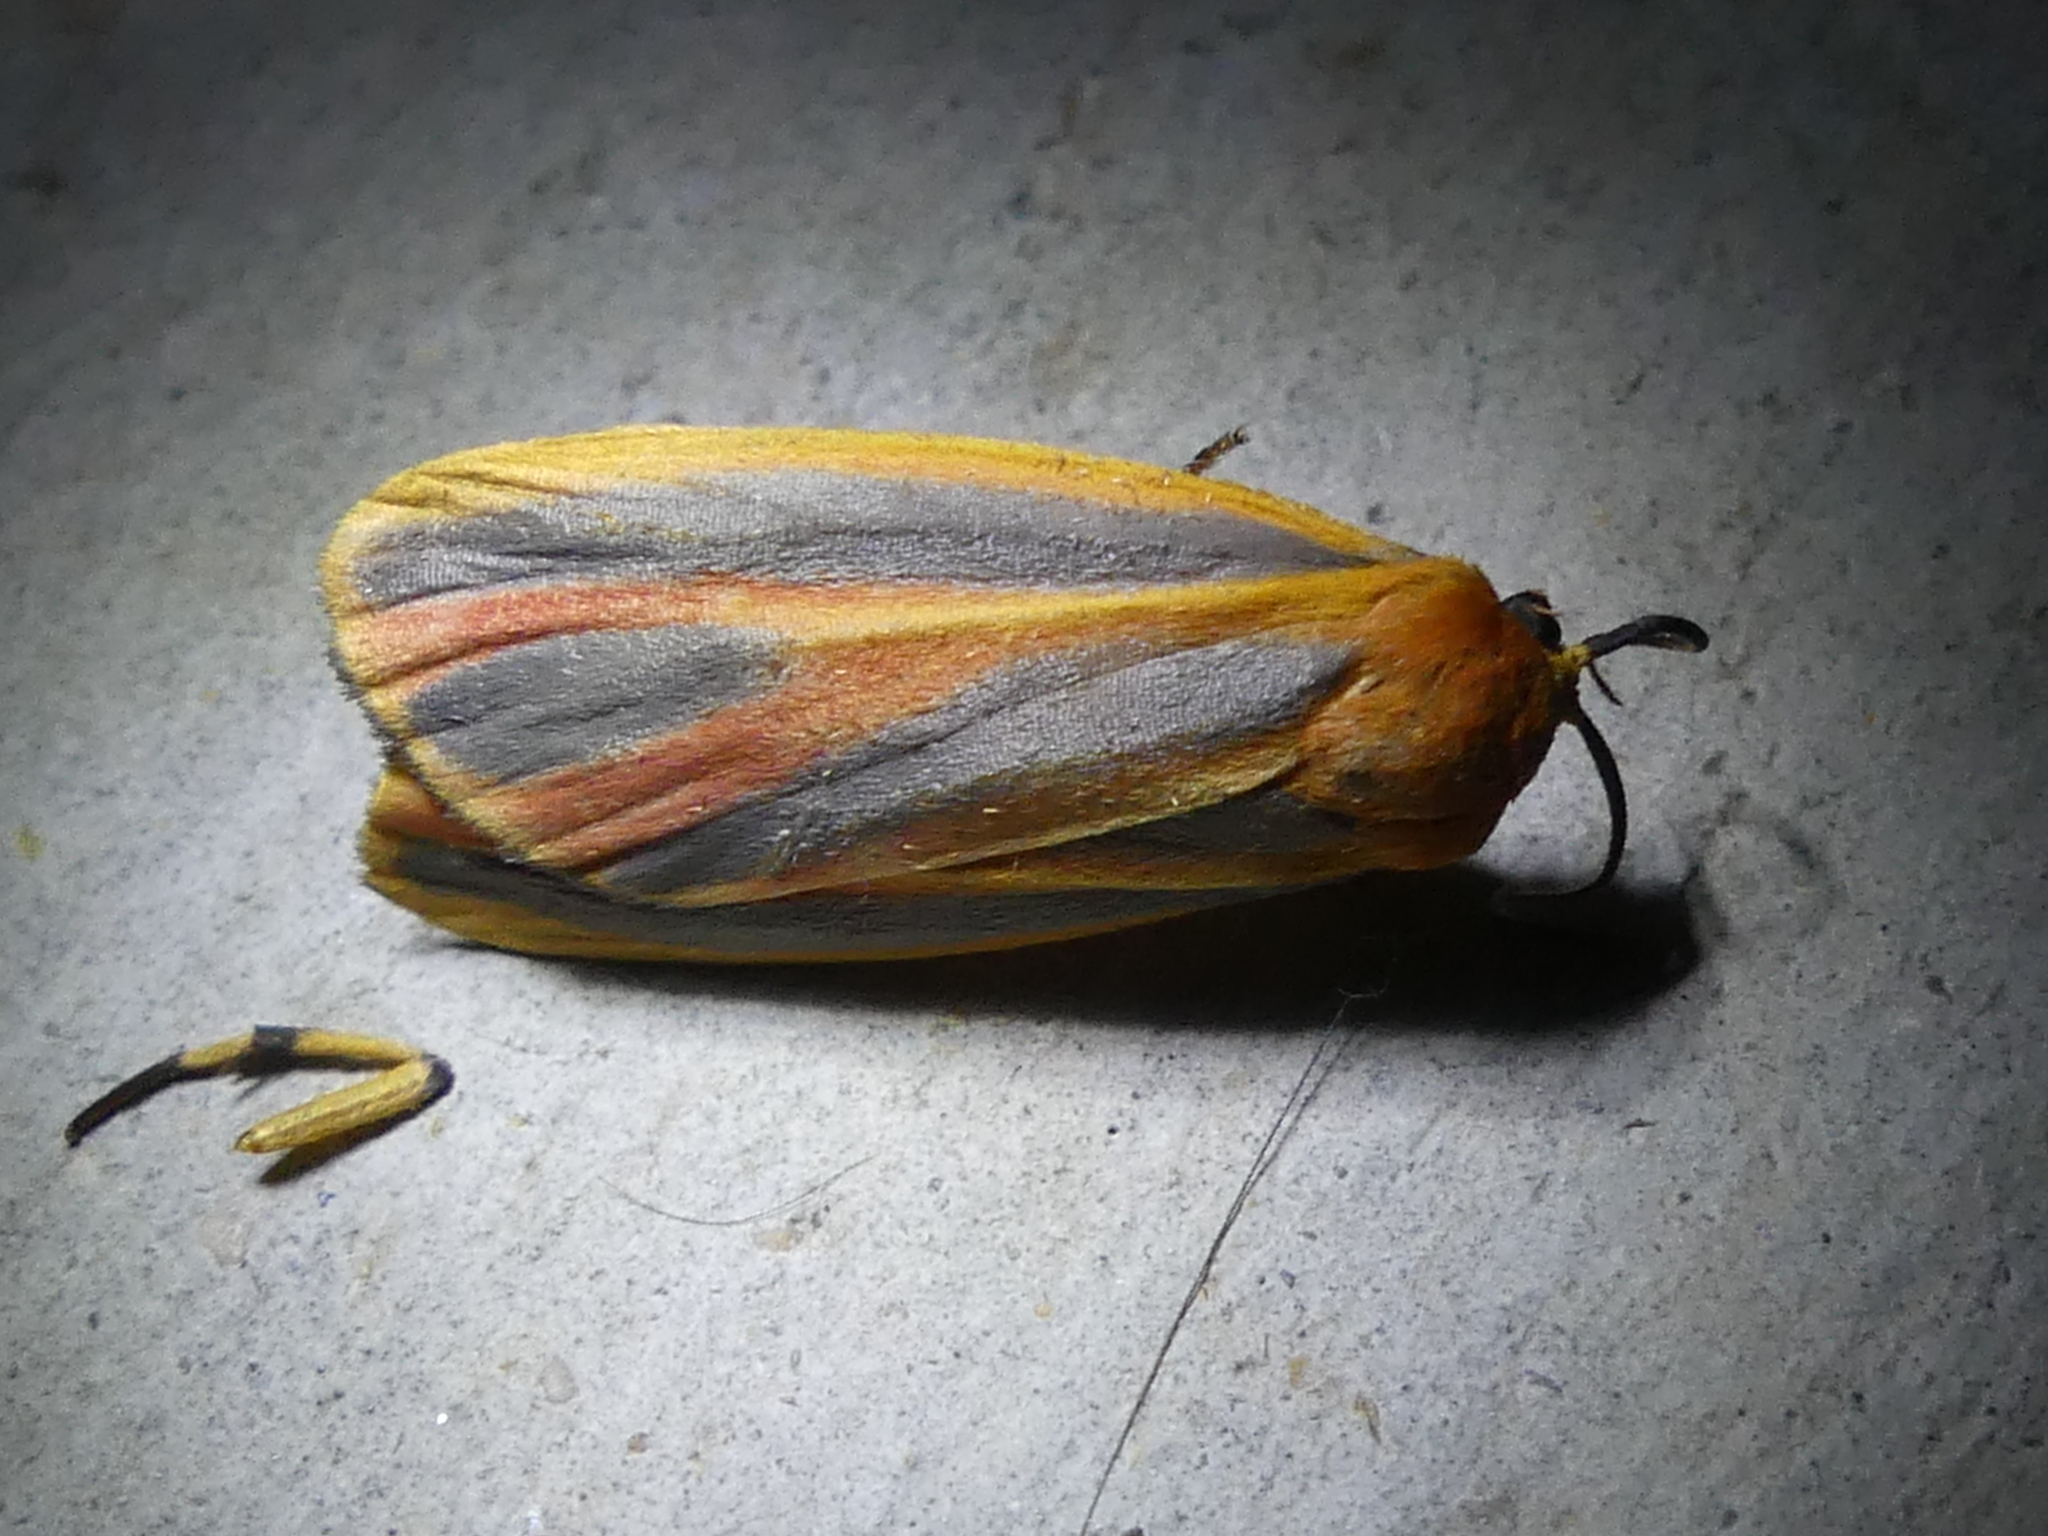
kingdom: Animalia
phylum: Arthropoda
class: Insecta
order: Lepidoptera
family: Erebidae
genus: Hypoprepia
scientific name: Hypoprepia fucosa
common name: Painted lichen moth
